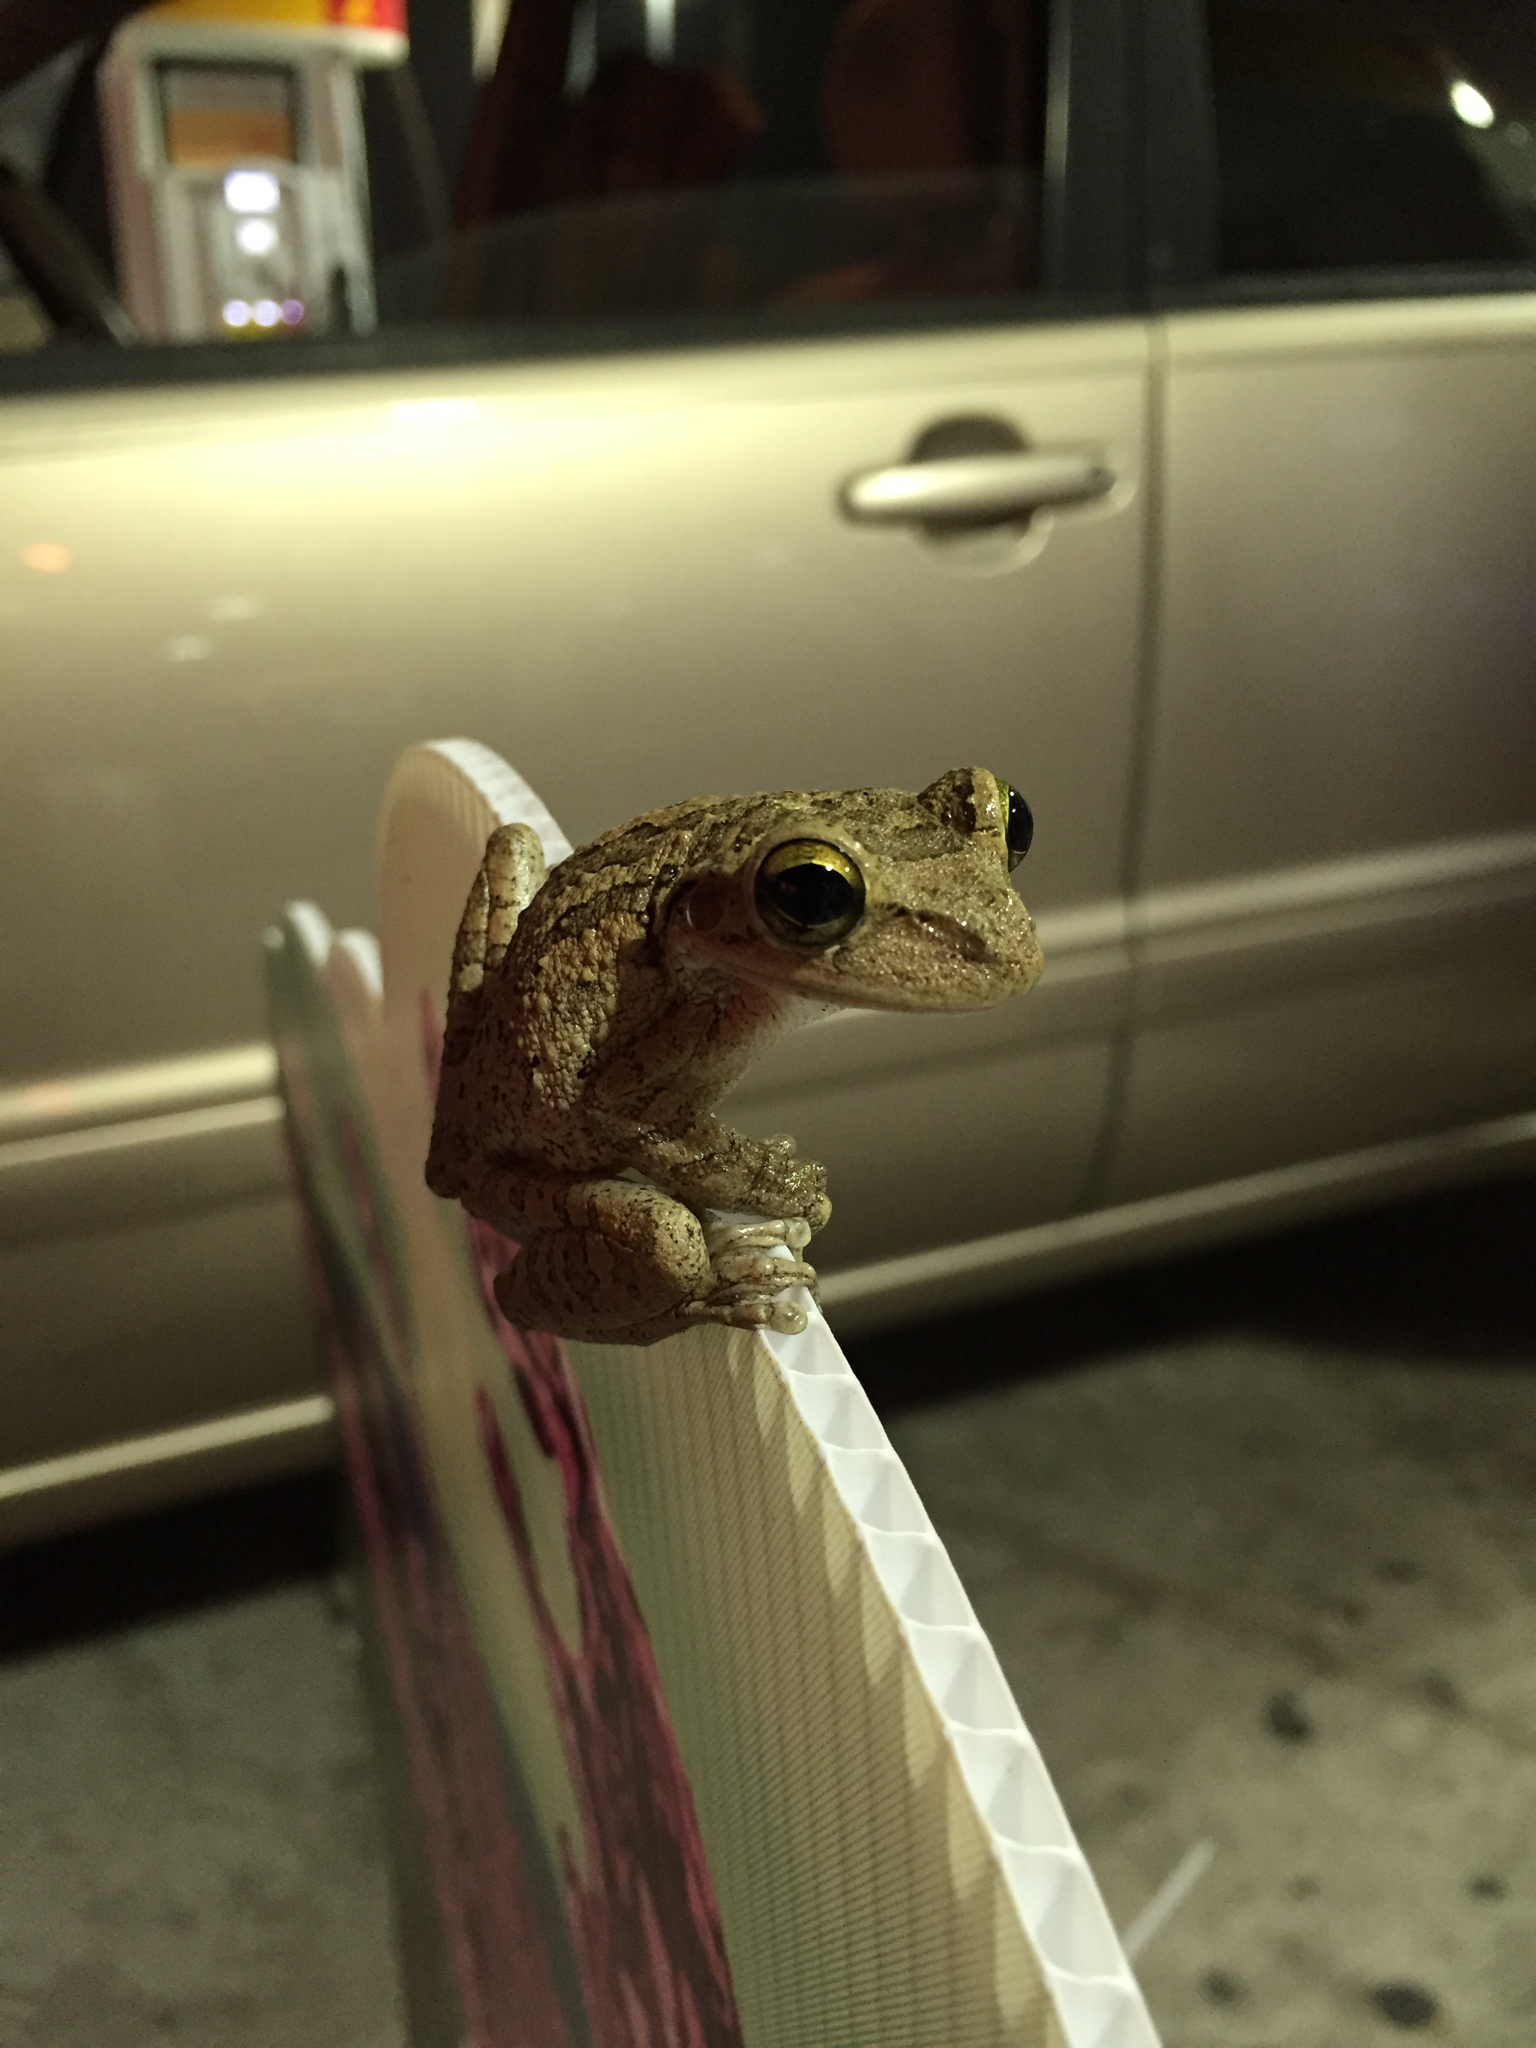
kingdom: Animalia
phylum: Chordata
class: Amphibia
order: Anura
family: Hylidae
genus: Osteopilus
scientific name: Osteopilus septentrionalis
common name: Cuban treefrog
